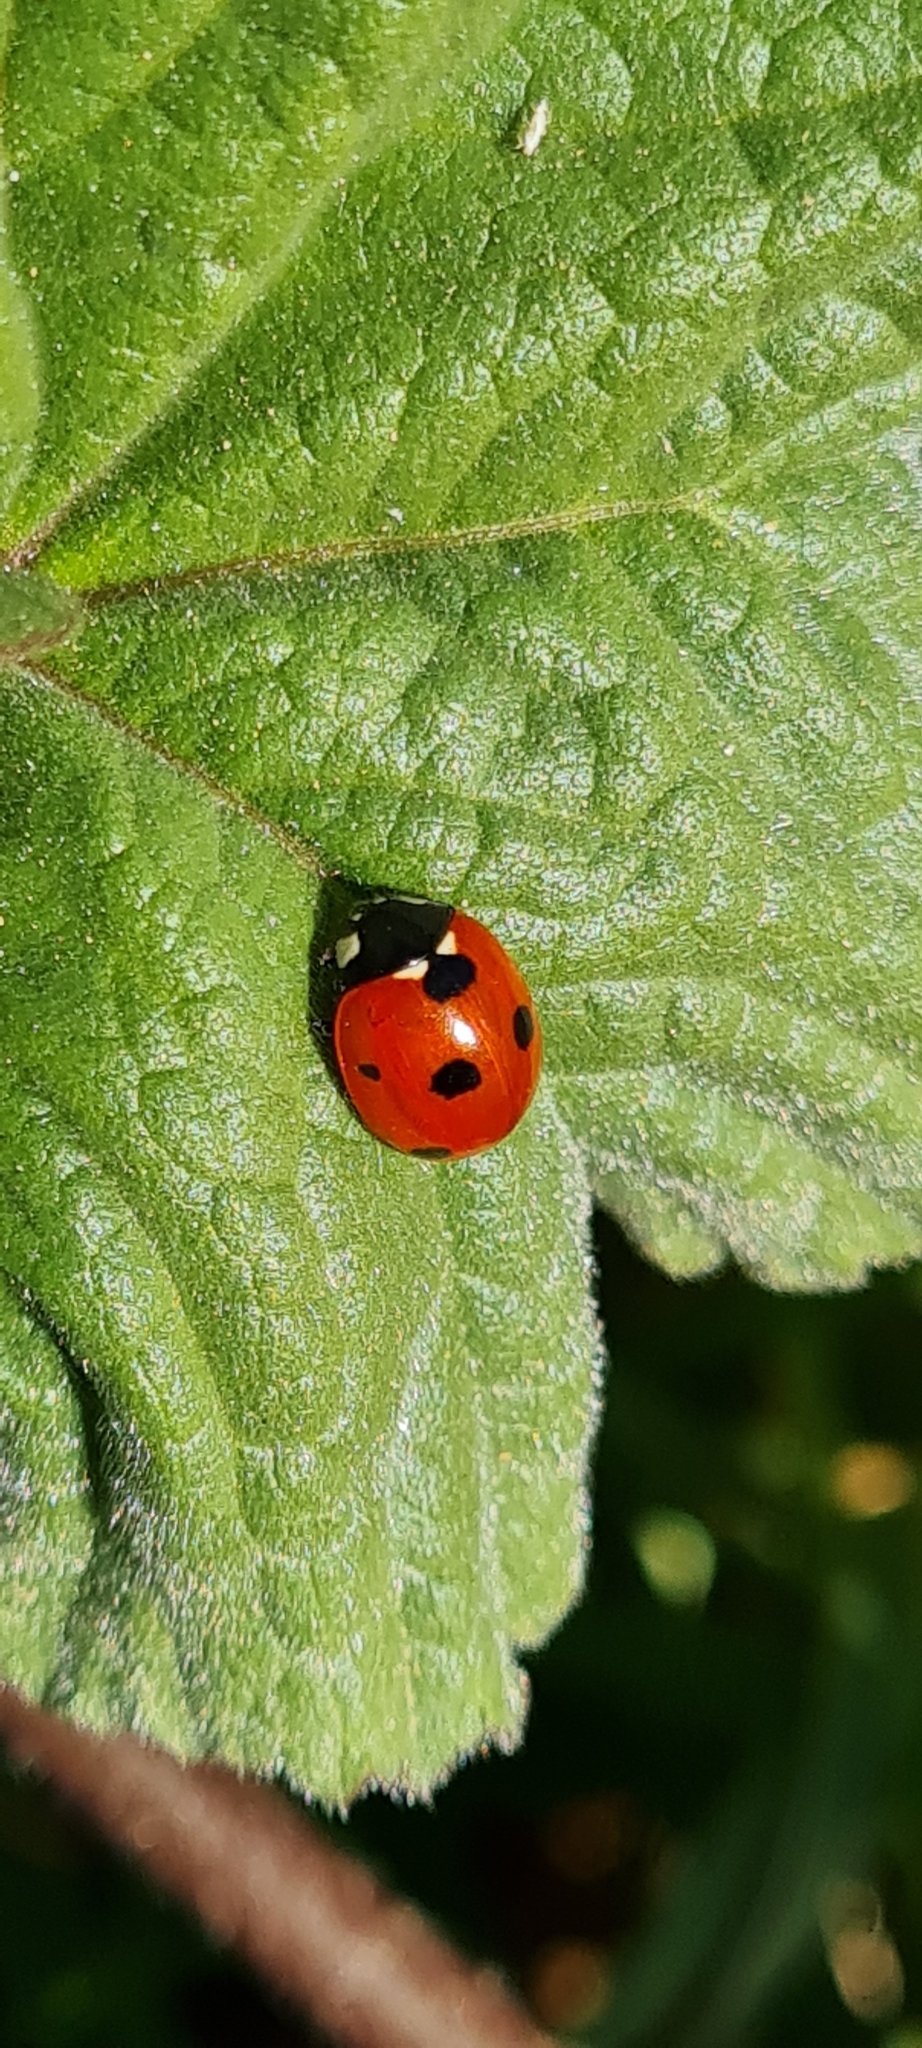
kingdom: Animalia
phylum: Arthropoda
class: Insecta
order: Coleoptera
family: Coccinellidae
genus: Coccinella
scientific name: Coccinella septempunctata
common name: Sevenspotted lady beetle
